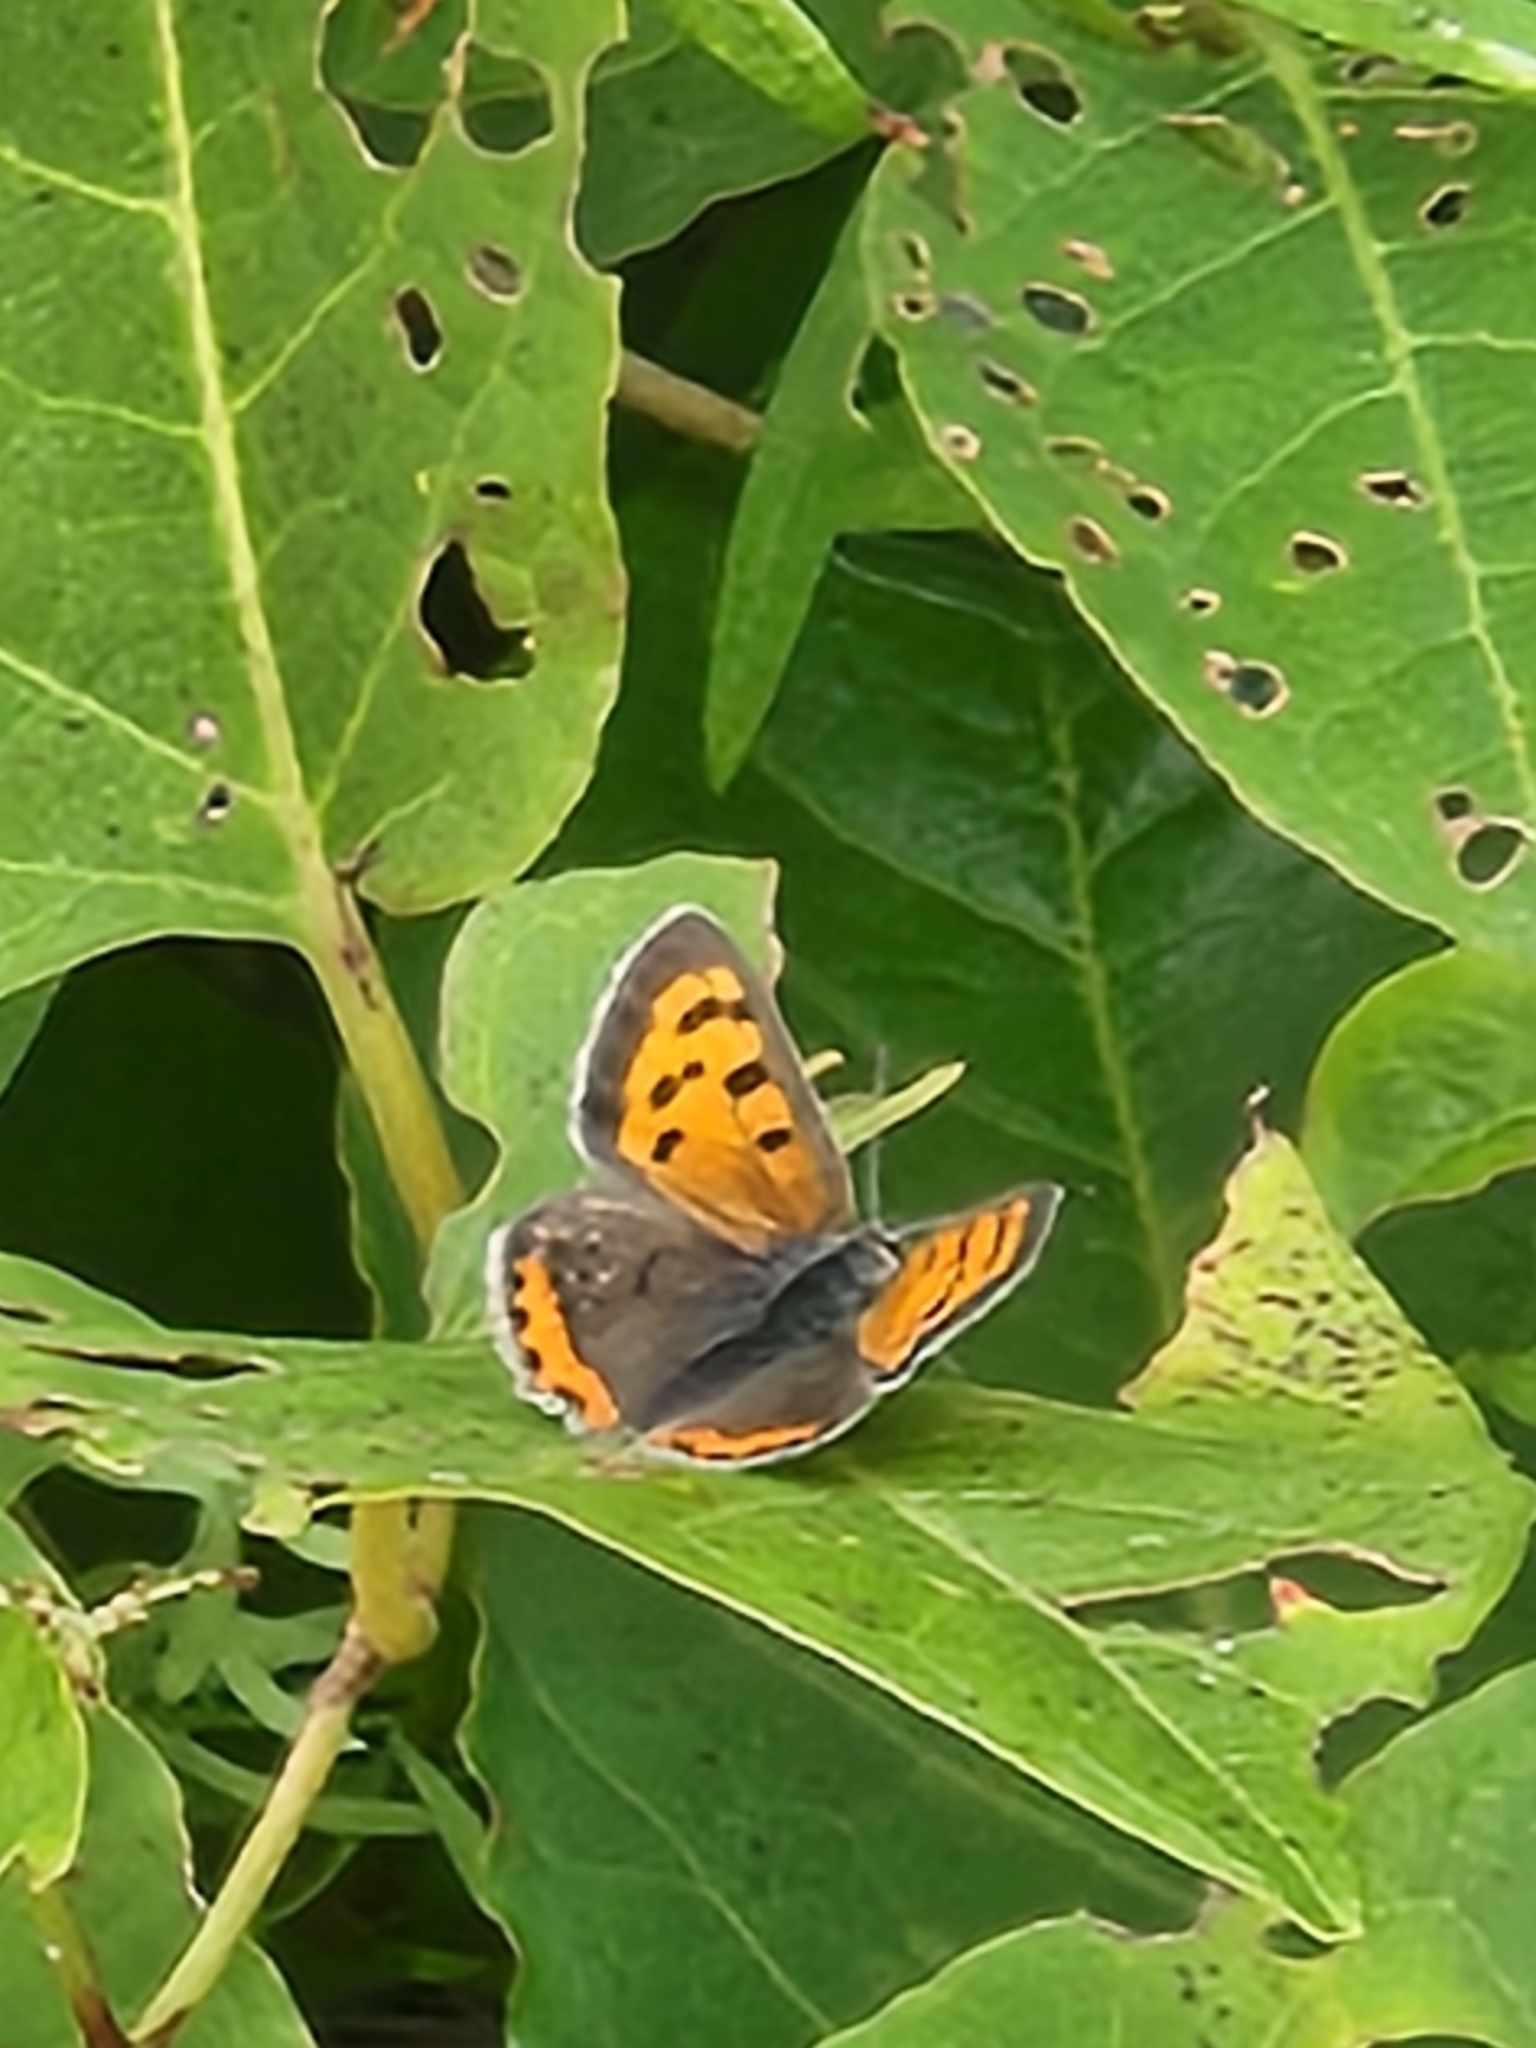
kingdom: Animalia
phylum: Arthropoda
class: Insecta
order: Lepidoptera
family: Lycaenidae
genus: Lycaena
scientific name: Lycaena hypophlaeas
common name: American copper
